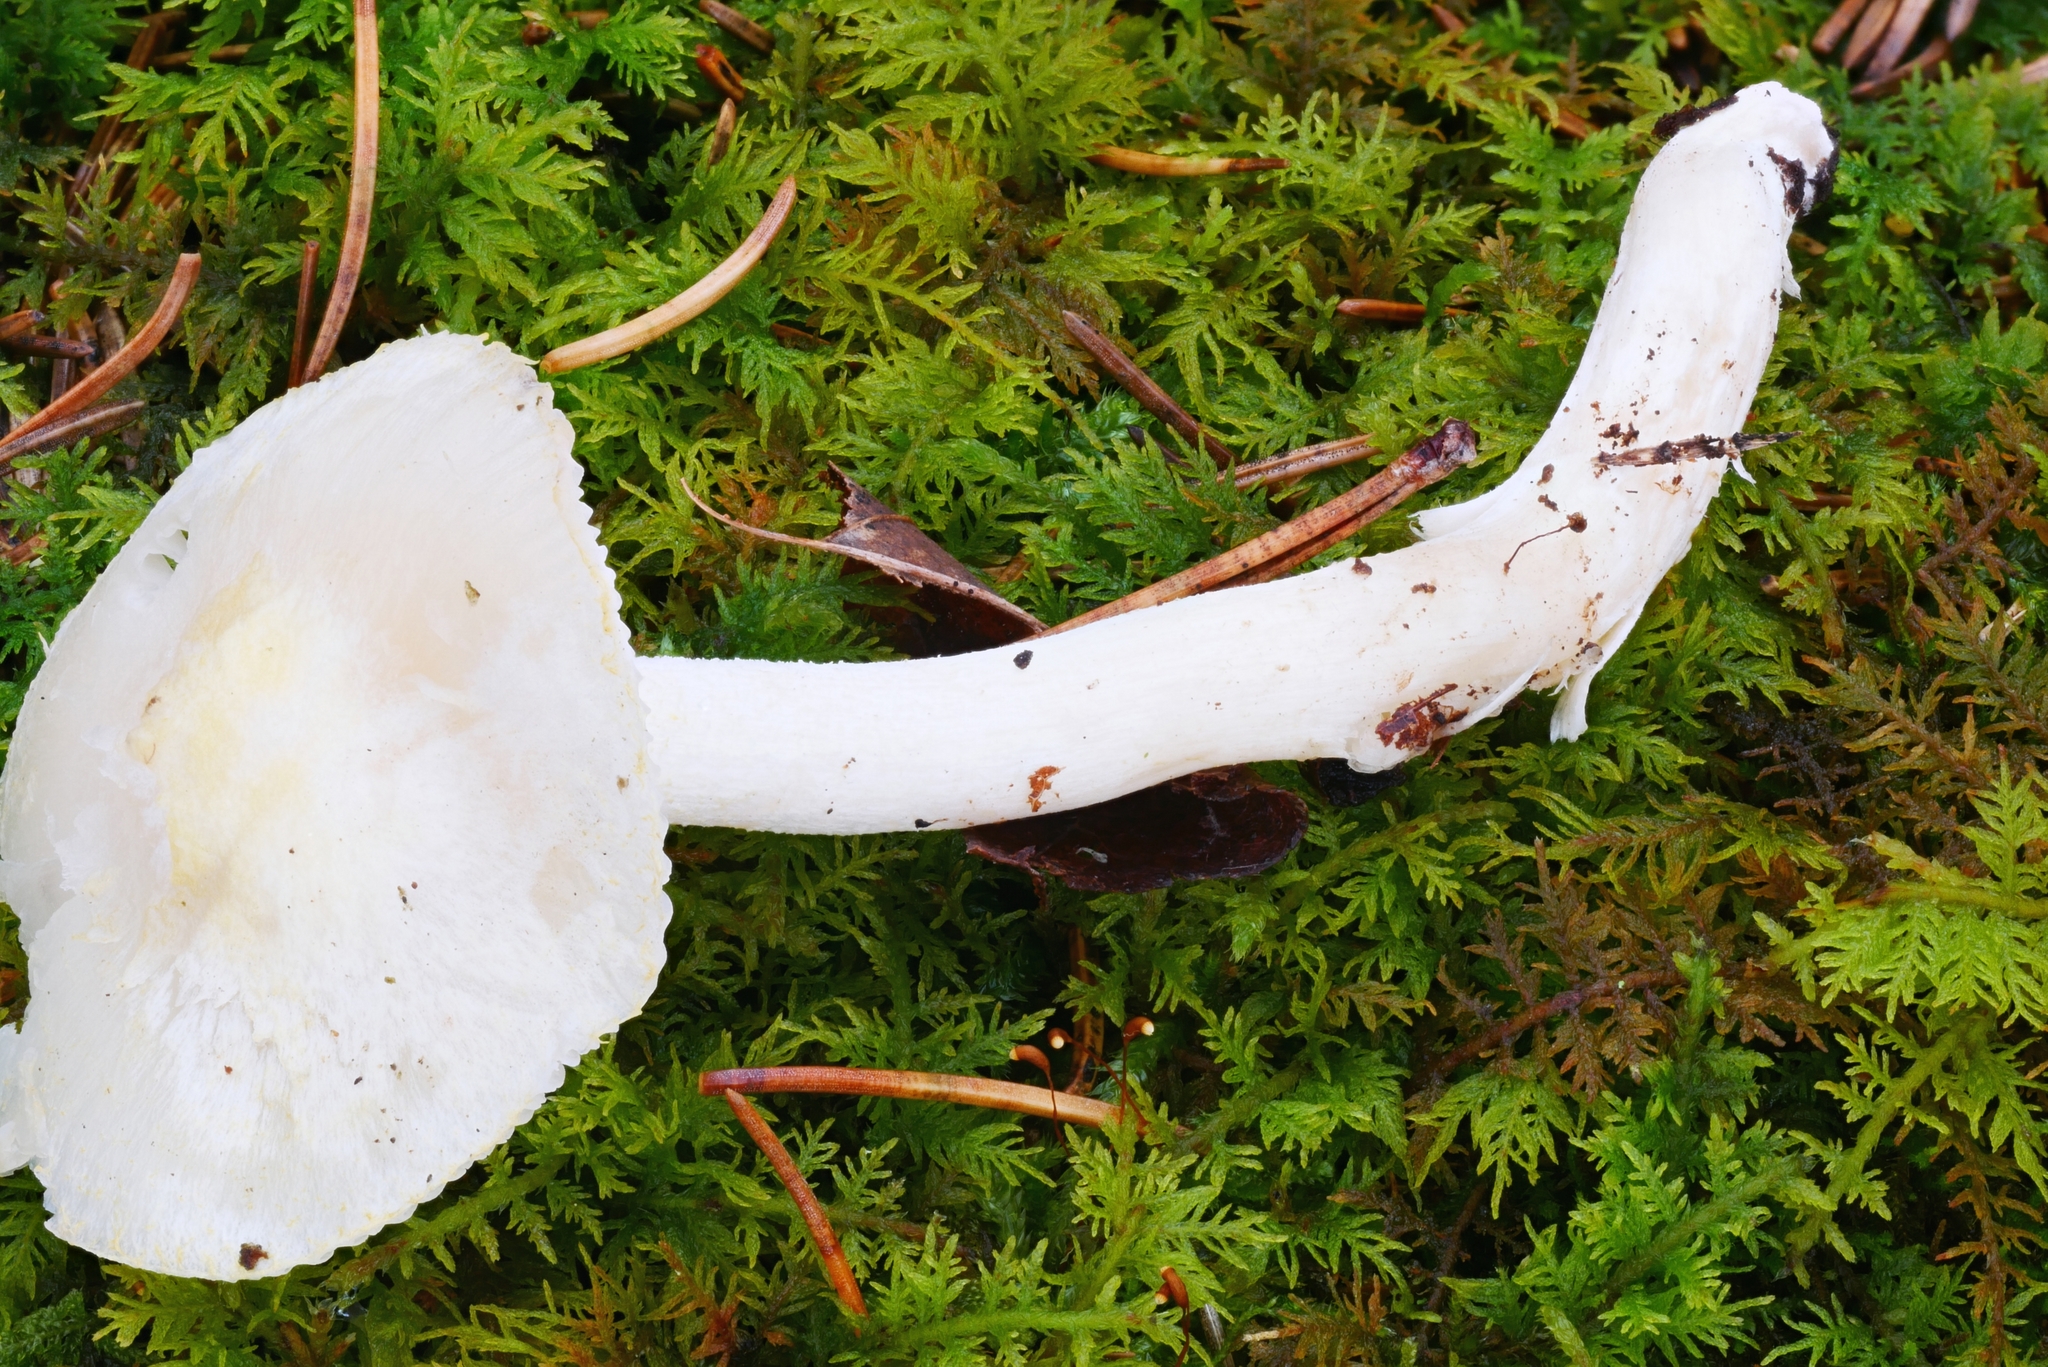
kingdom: Fungi
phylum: Basidiomycota
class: Agaricomycetes
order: Agaricales
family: Hygrophoraceae
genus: Hygrophorus
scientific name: Hygrophorus chrysodon
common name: Gold flecked woodwax
